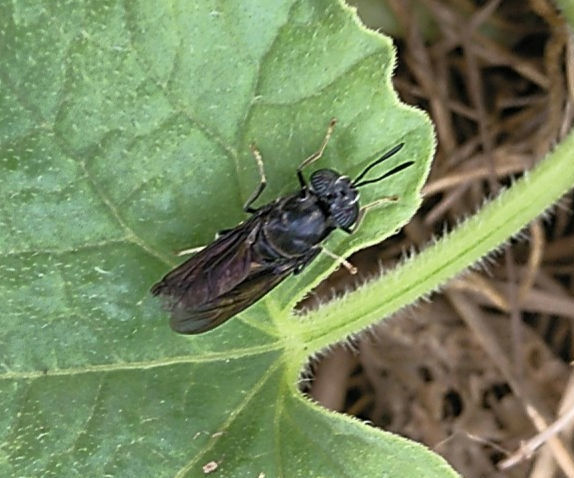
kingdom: Animalia
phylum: Arthropoda
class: Insecta
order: Diptera
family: Stratiomyidae
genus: Hermetia
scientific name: Hermetia illucens
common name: Black soldier fly
